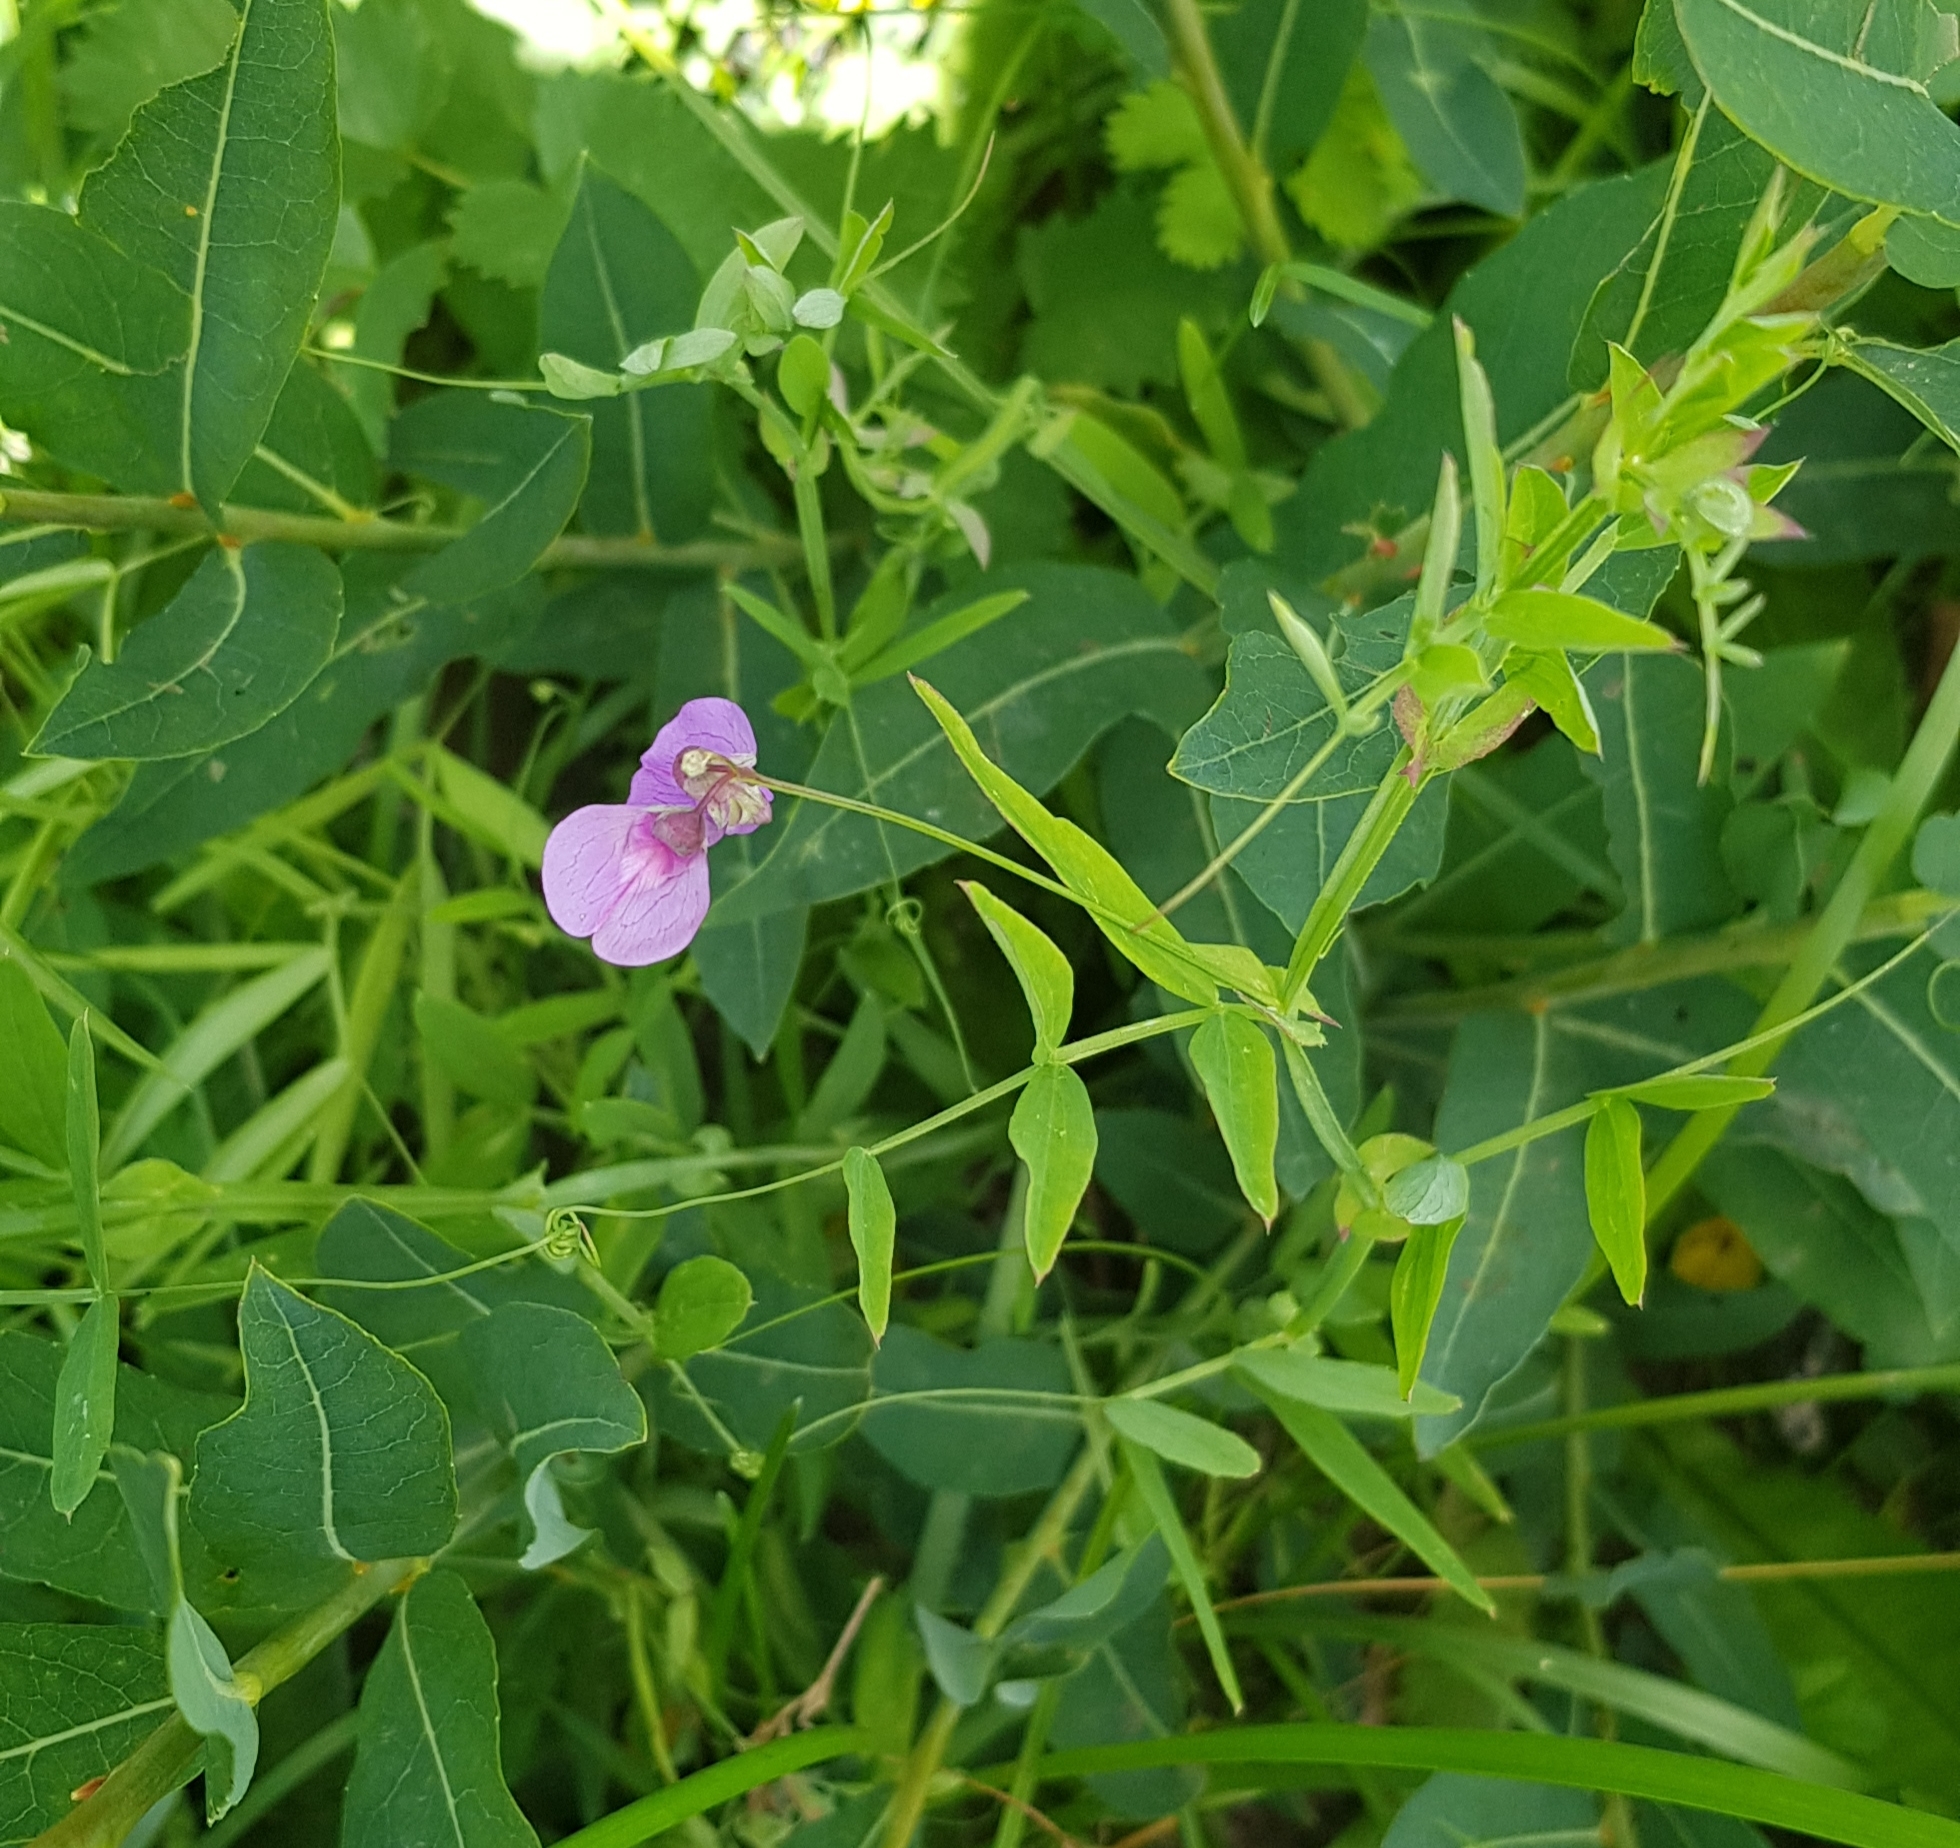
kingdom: Plantae
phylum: Tracheophyta
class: Magnoliopsida
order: Fabales
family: Fabaceae
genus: Lathyrus
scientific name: Lathyrus palustris
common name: Marsh pea
